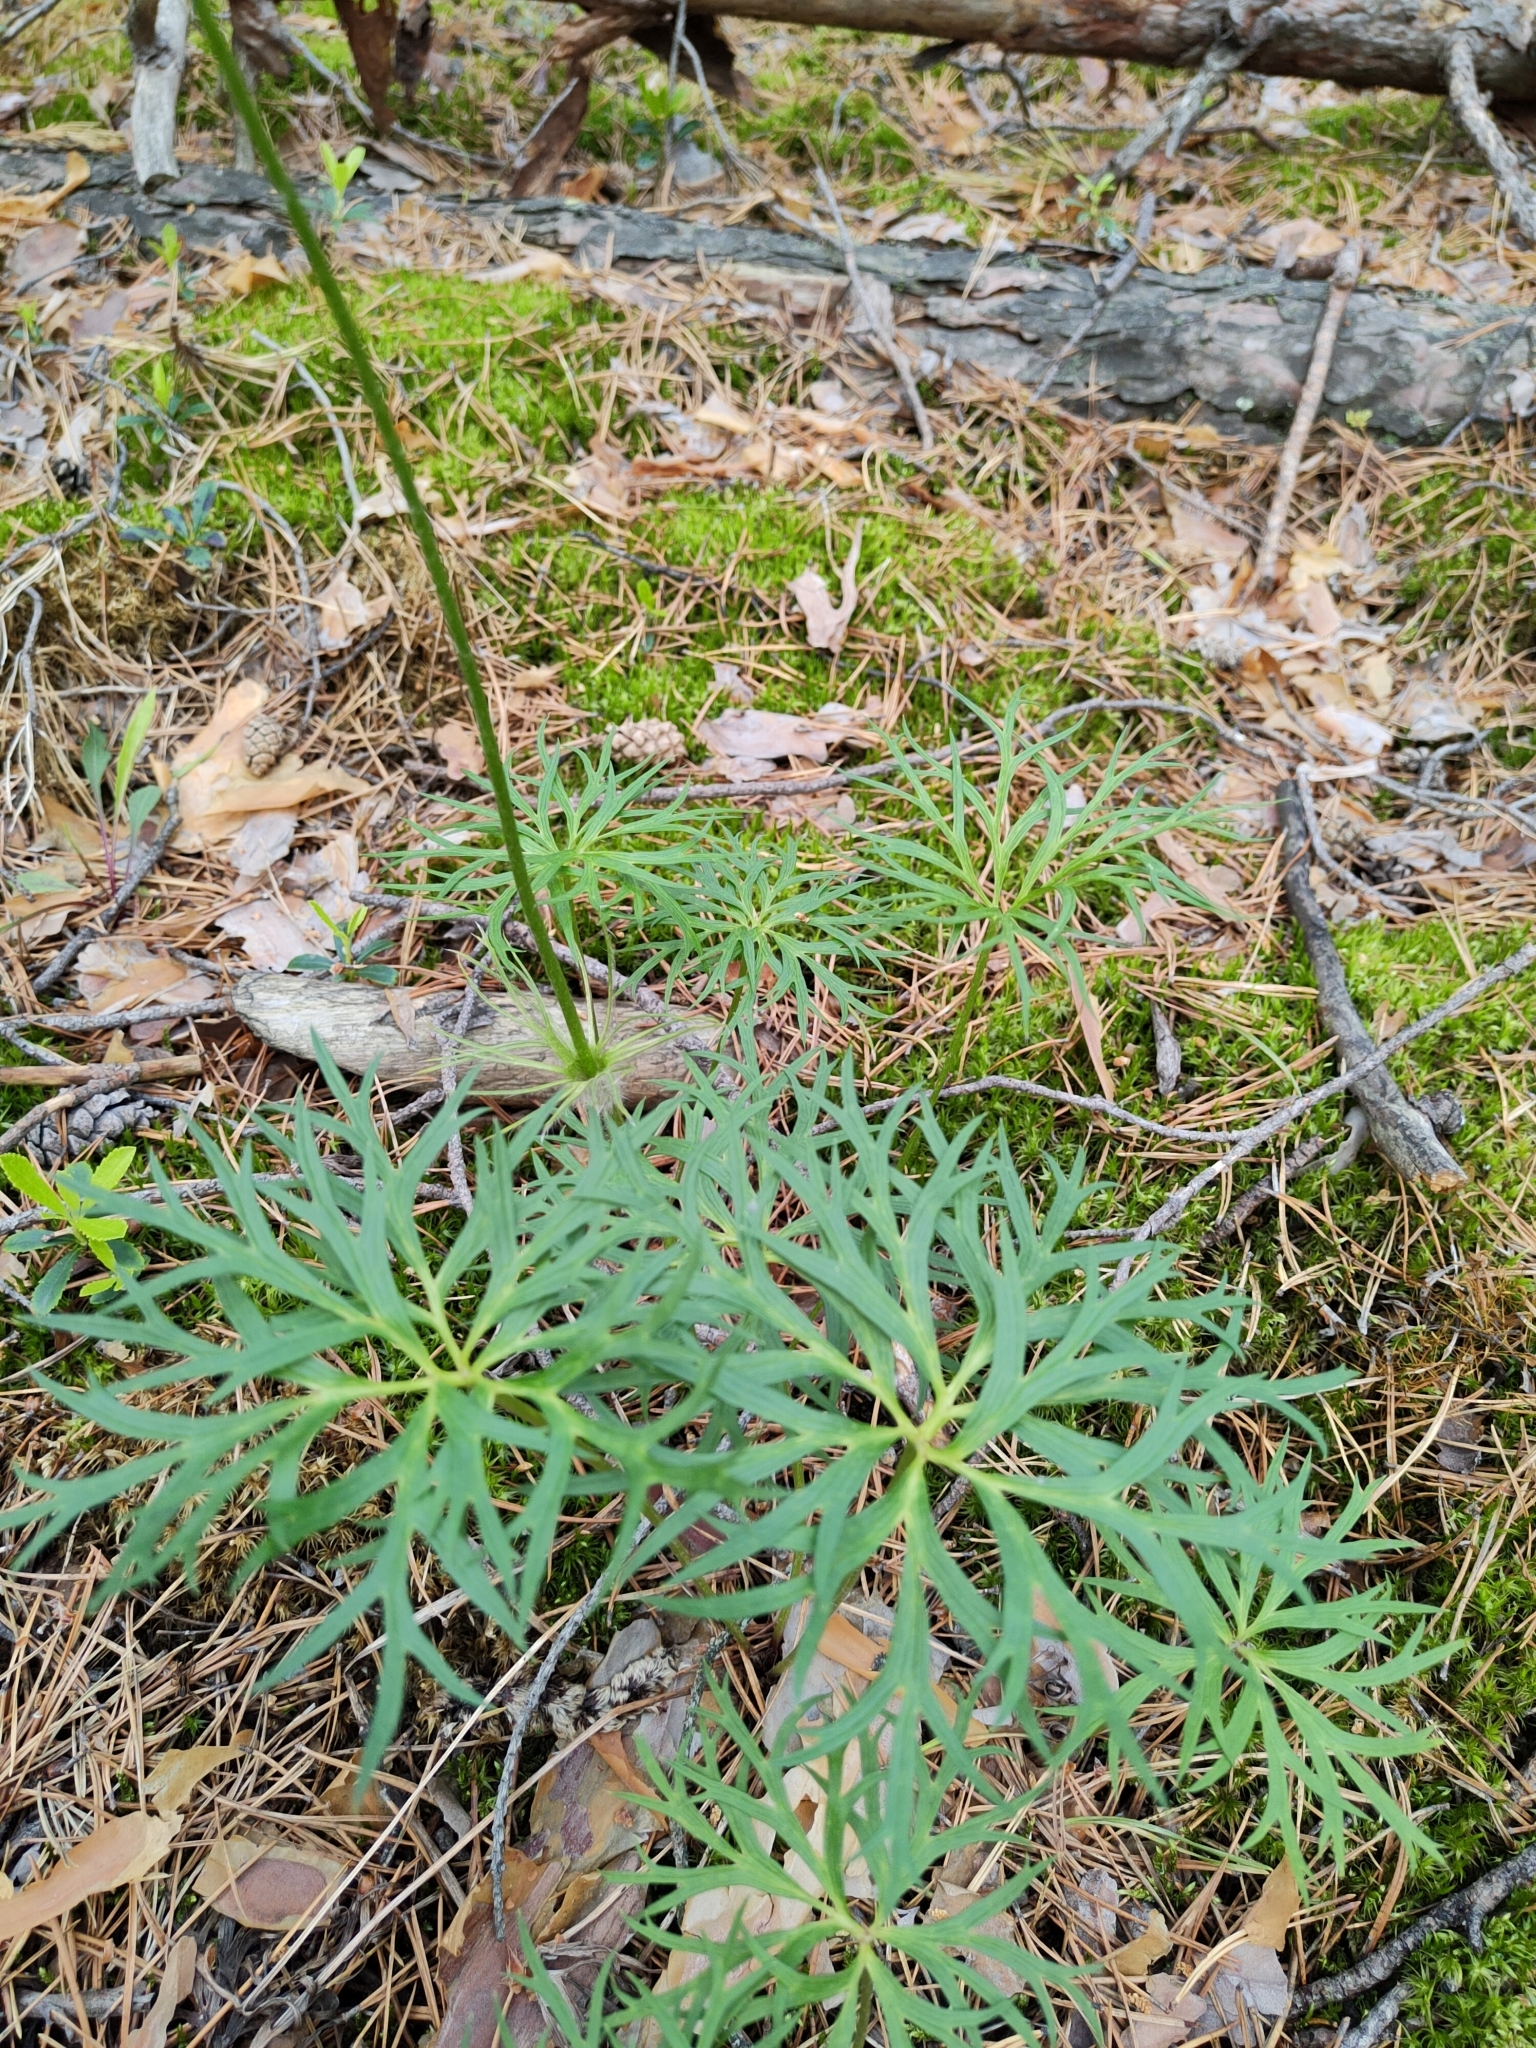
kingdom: Plantae
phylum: Tracheophyta
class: Magnoliopsida
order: Ranunculales
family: Ranunculaceae
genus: Pulsatilla
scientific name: Pulsatilla patens
